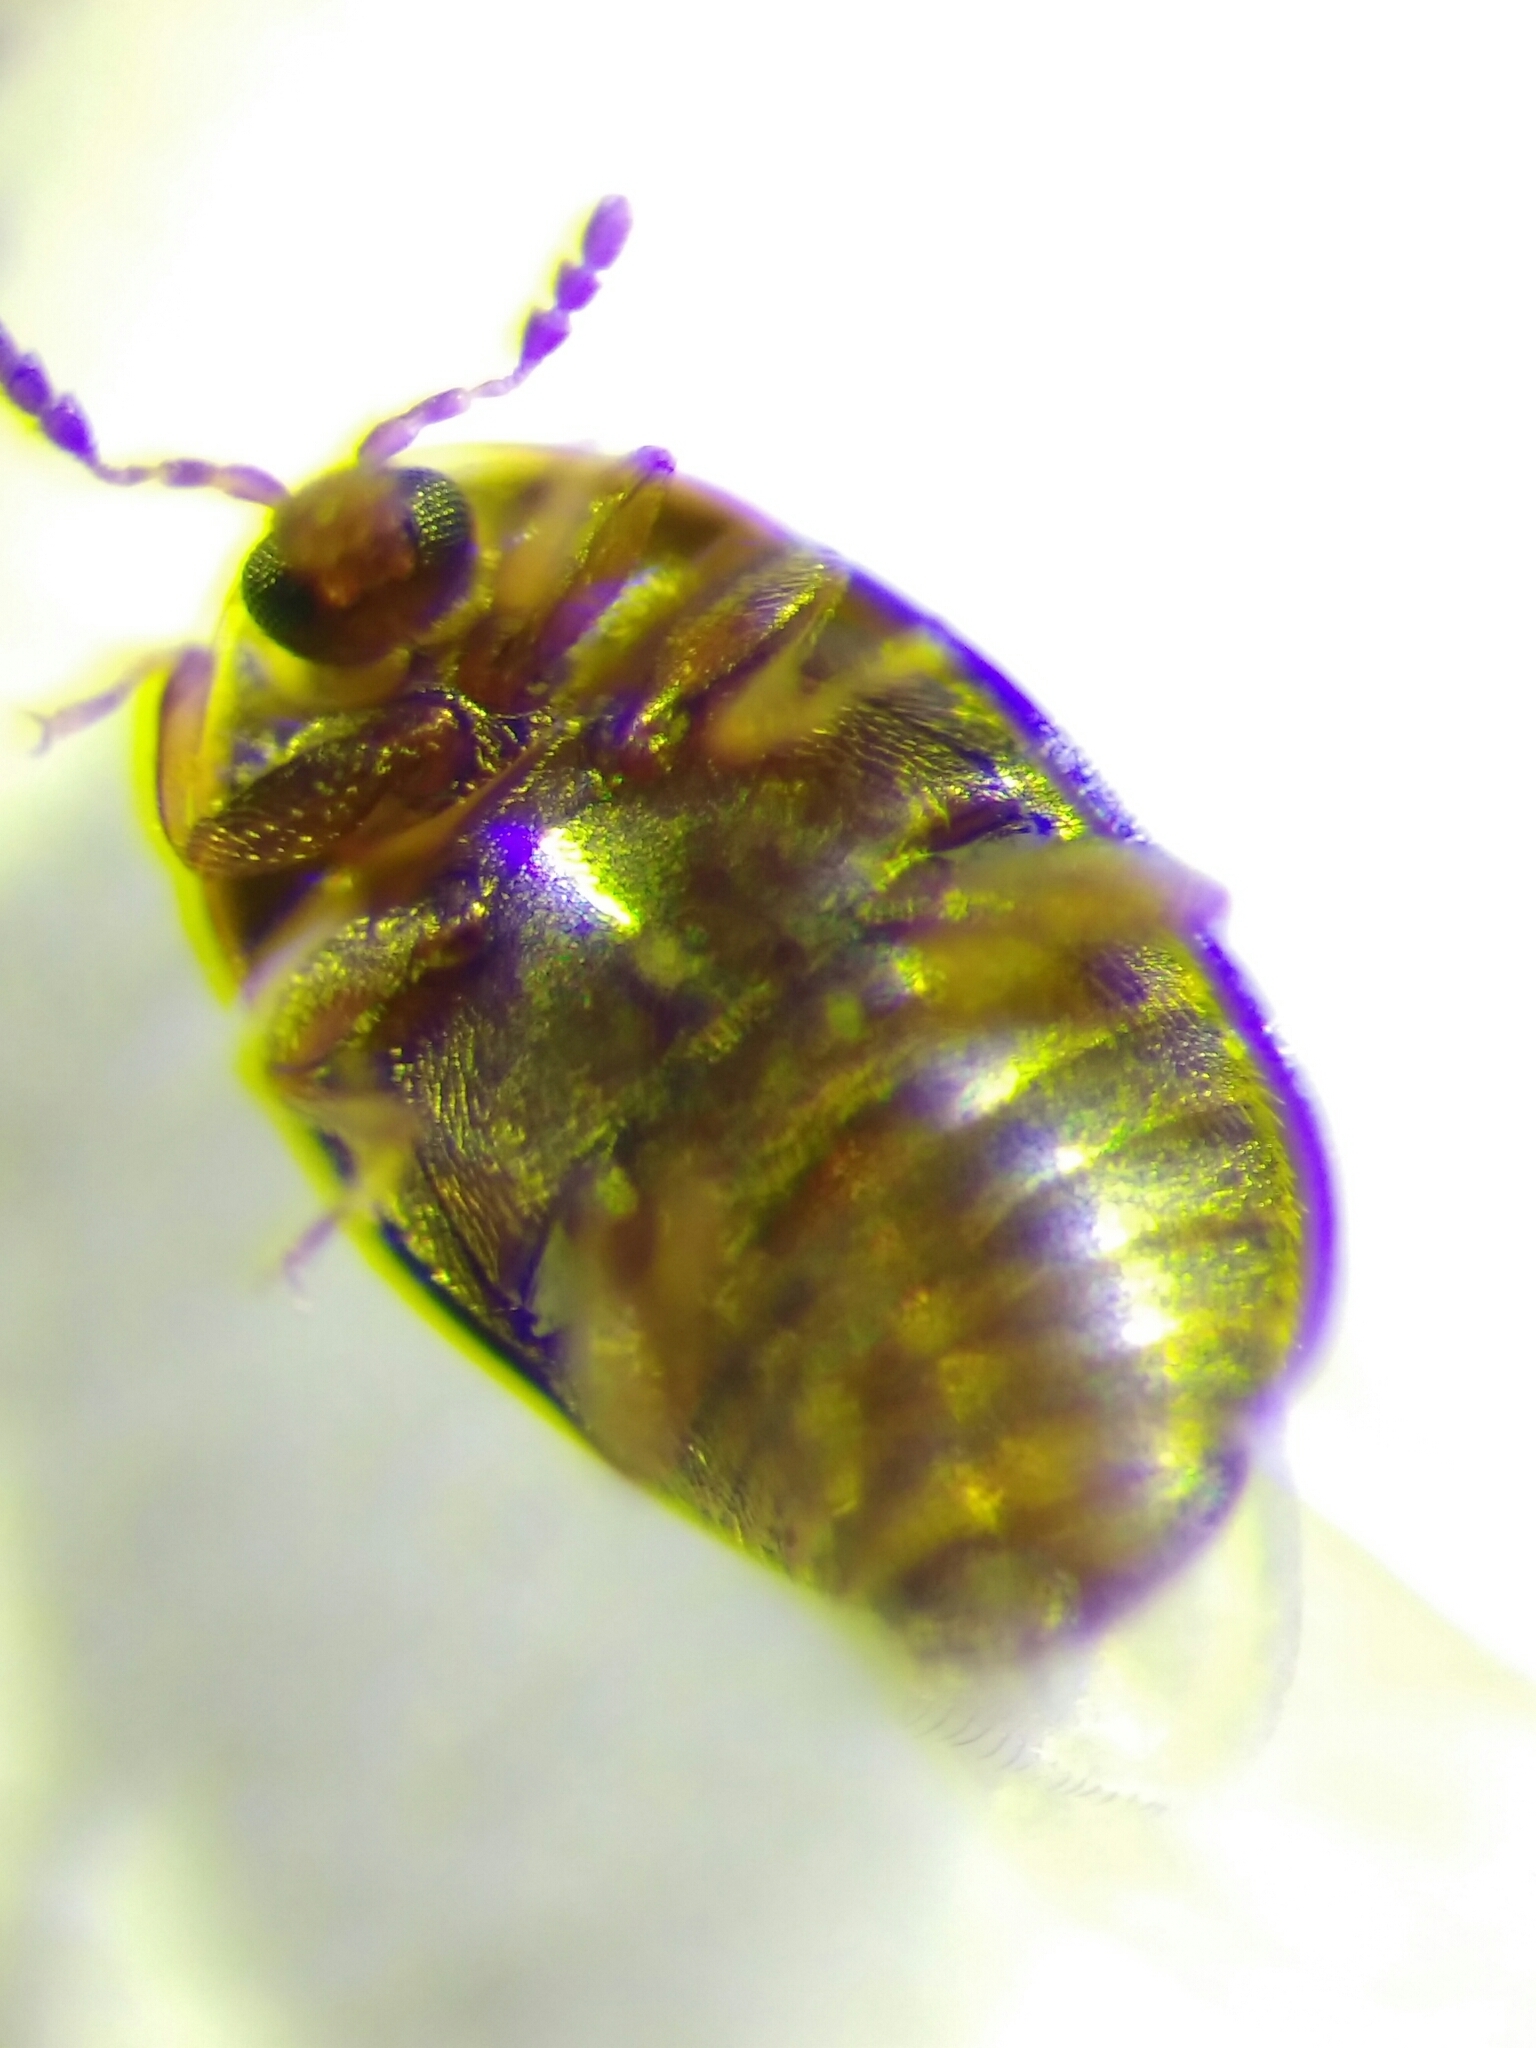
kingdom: Animalia
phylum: Arthropoda
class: Insecta
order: Coleoptera
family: Corylophidae
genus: Arthrolips
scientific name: Arthrolips
